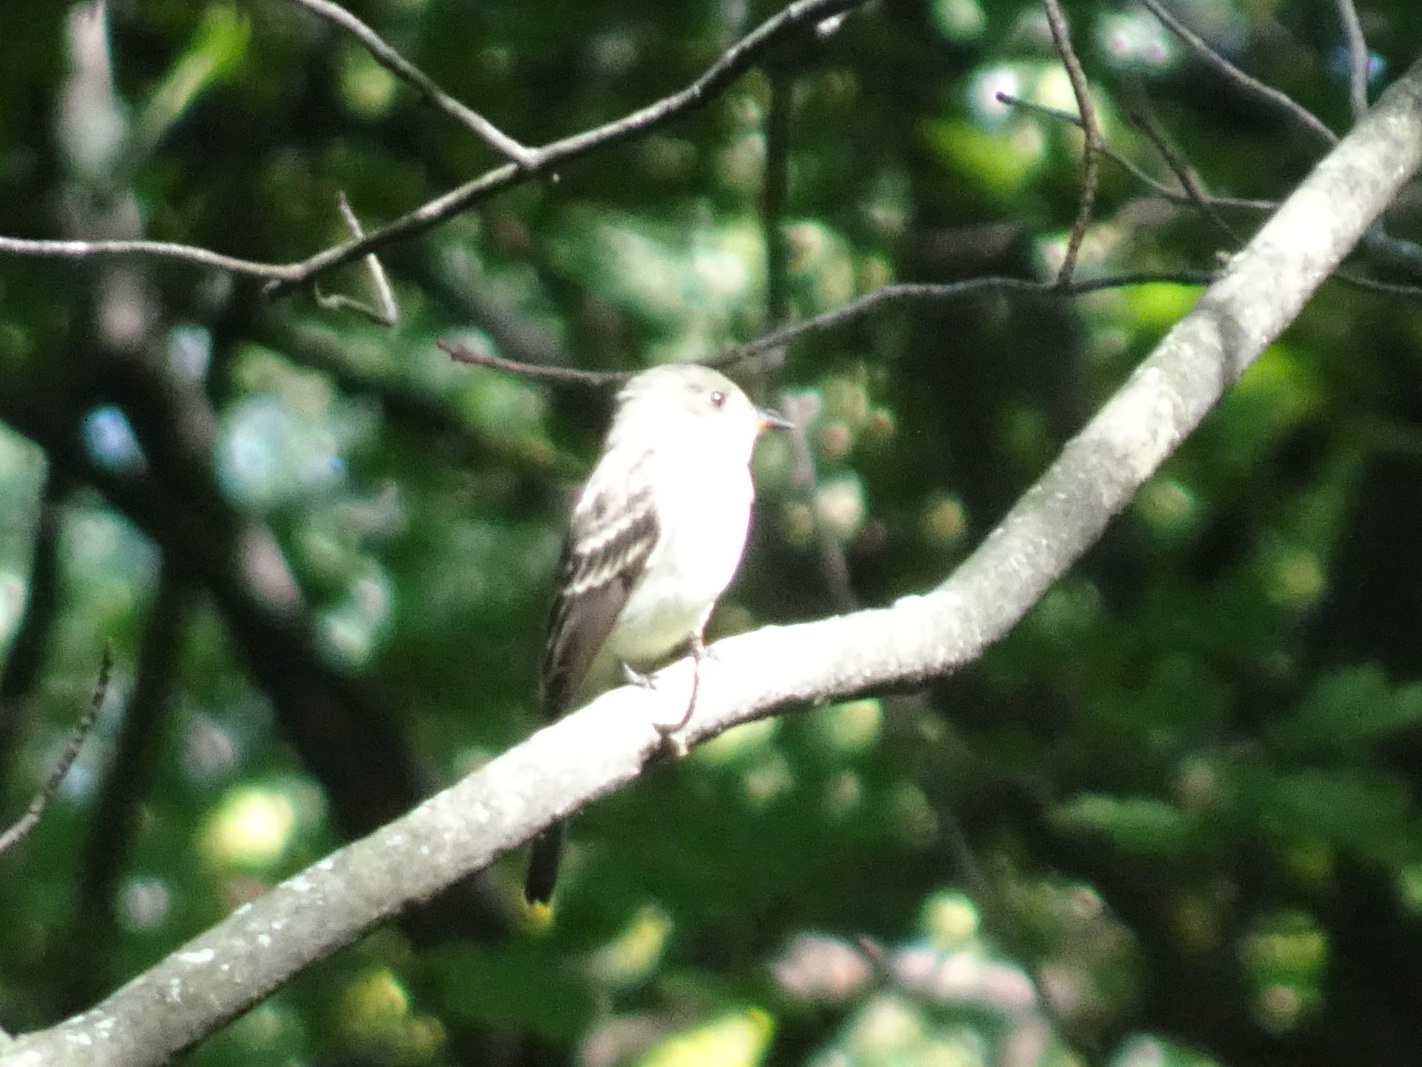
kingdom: Animalia
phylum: Chordata
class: Aves
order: Passeriformes
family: Tyrannidae
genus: Contopus
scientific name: Contopus virens
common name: Eastern wood-pewee
